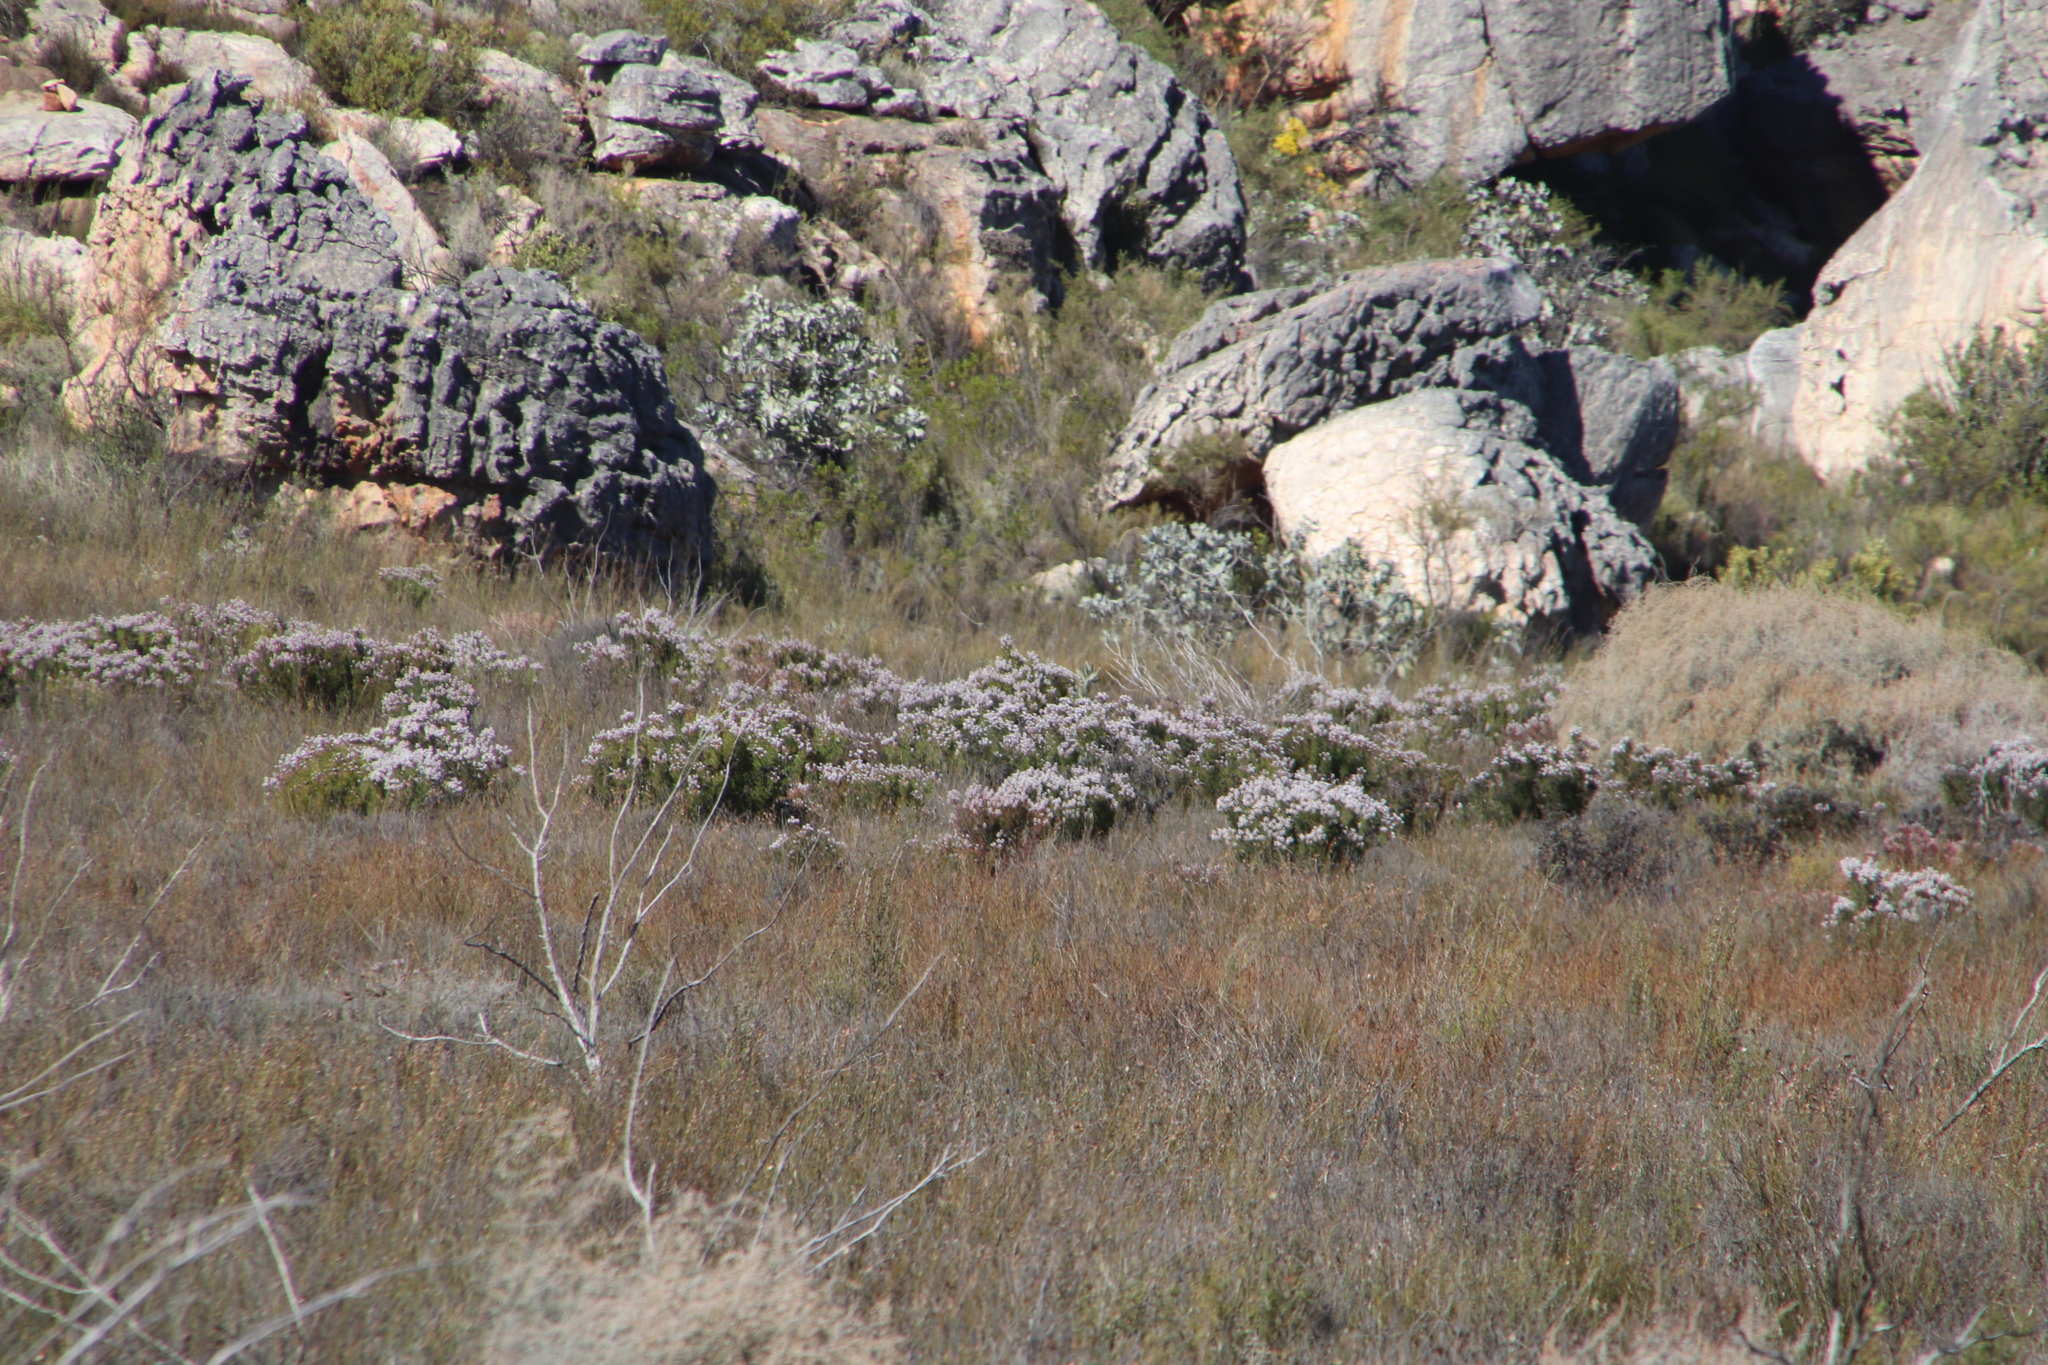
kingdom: Plantae
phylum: Tracheophyta
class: Magnoliopsida
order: Proteales
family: Proteaceae
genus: Serruria
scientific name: Serruria aitonii
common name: Marshmallow spiderhead
